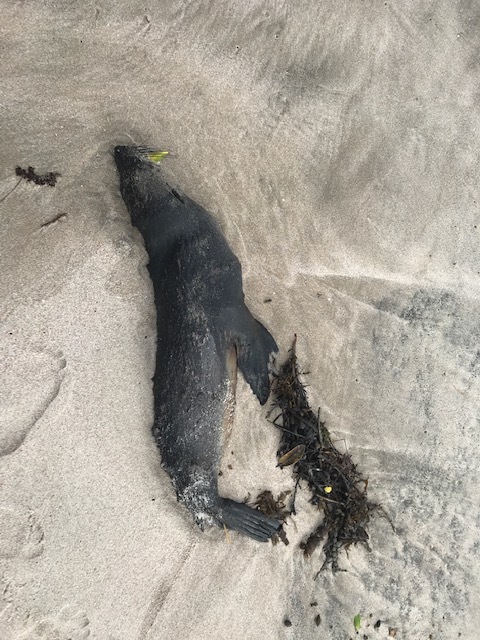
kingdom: Animalia
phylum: Chordata
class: Mammalia
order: Carnivora
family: Otariidae
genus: Arctocephalus
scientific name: Arctocephalus forsteri
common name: New zealand fur seal
